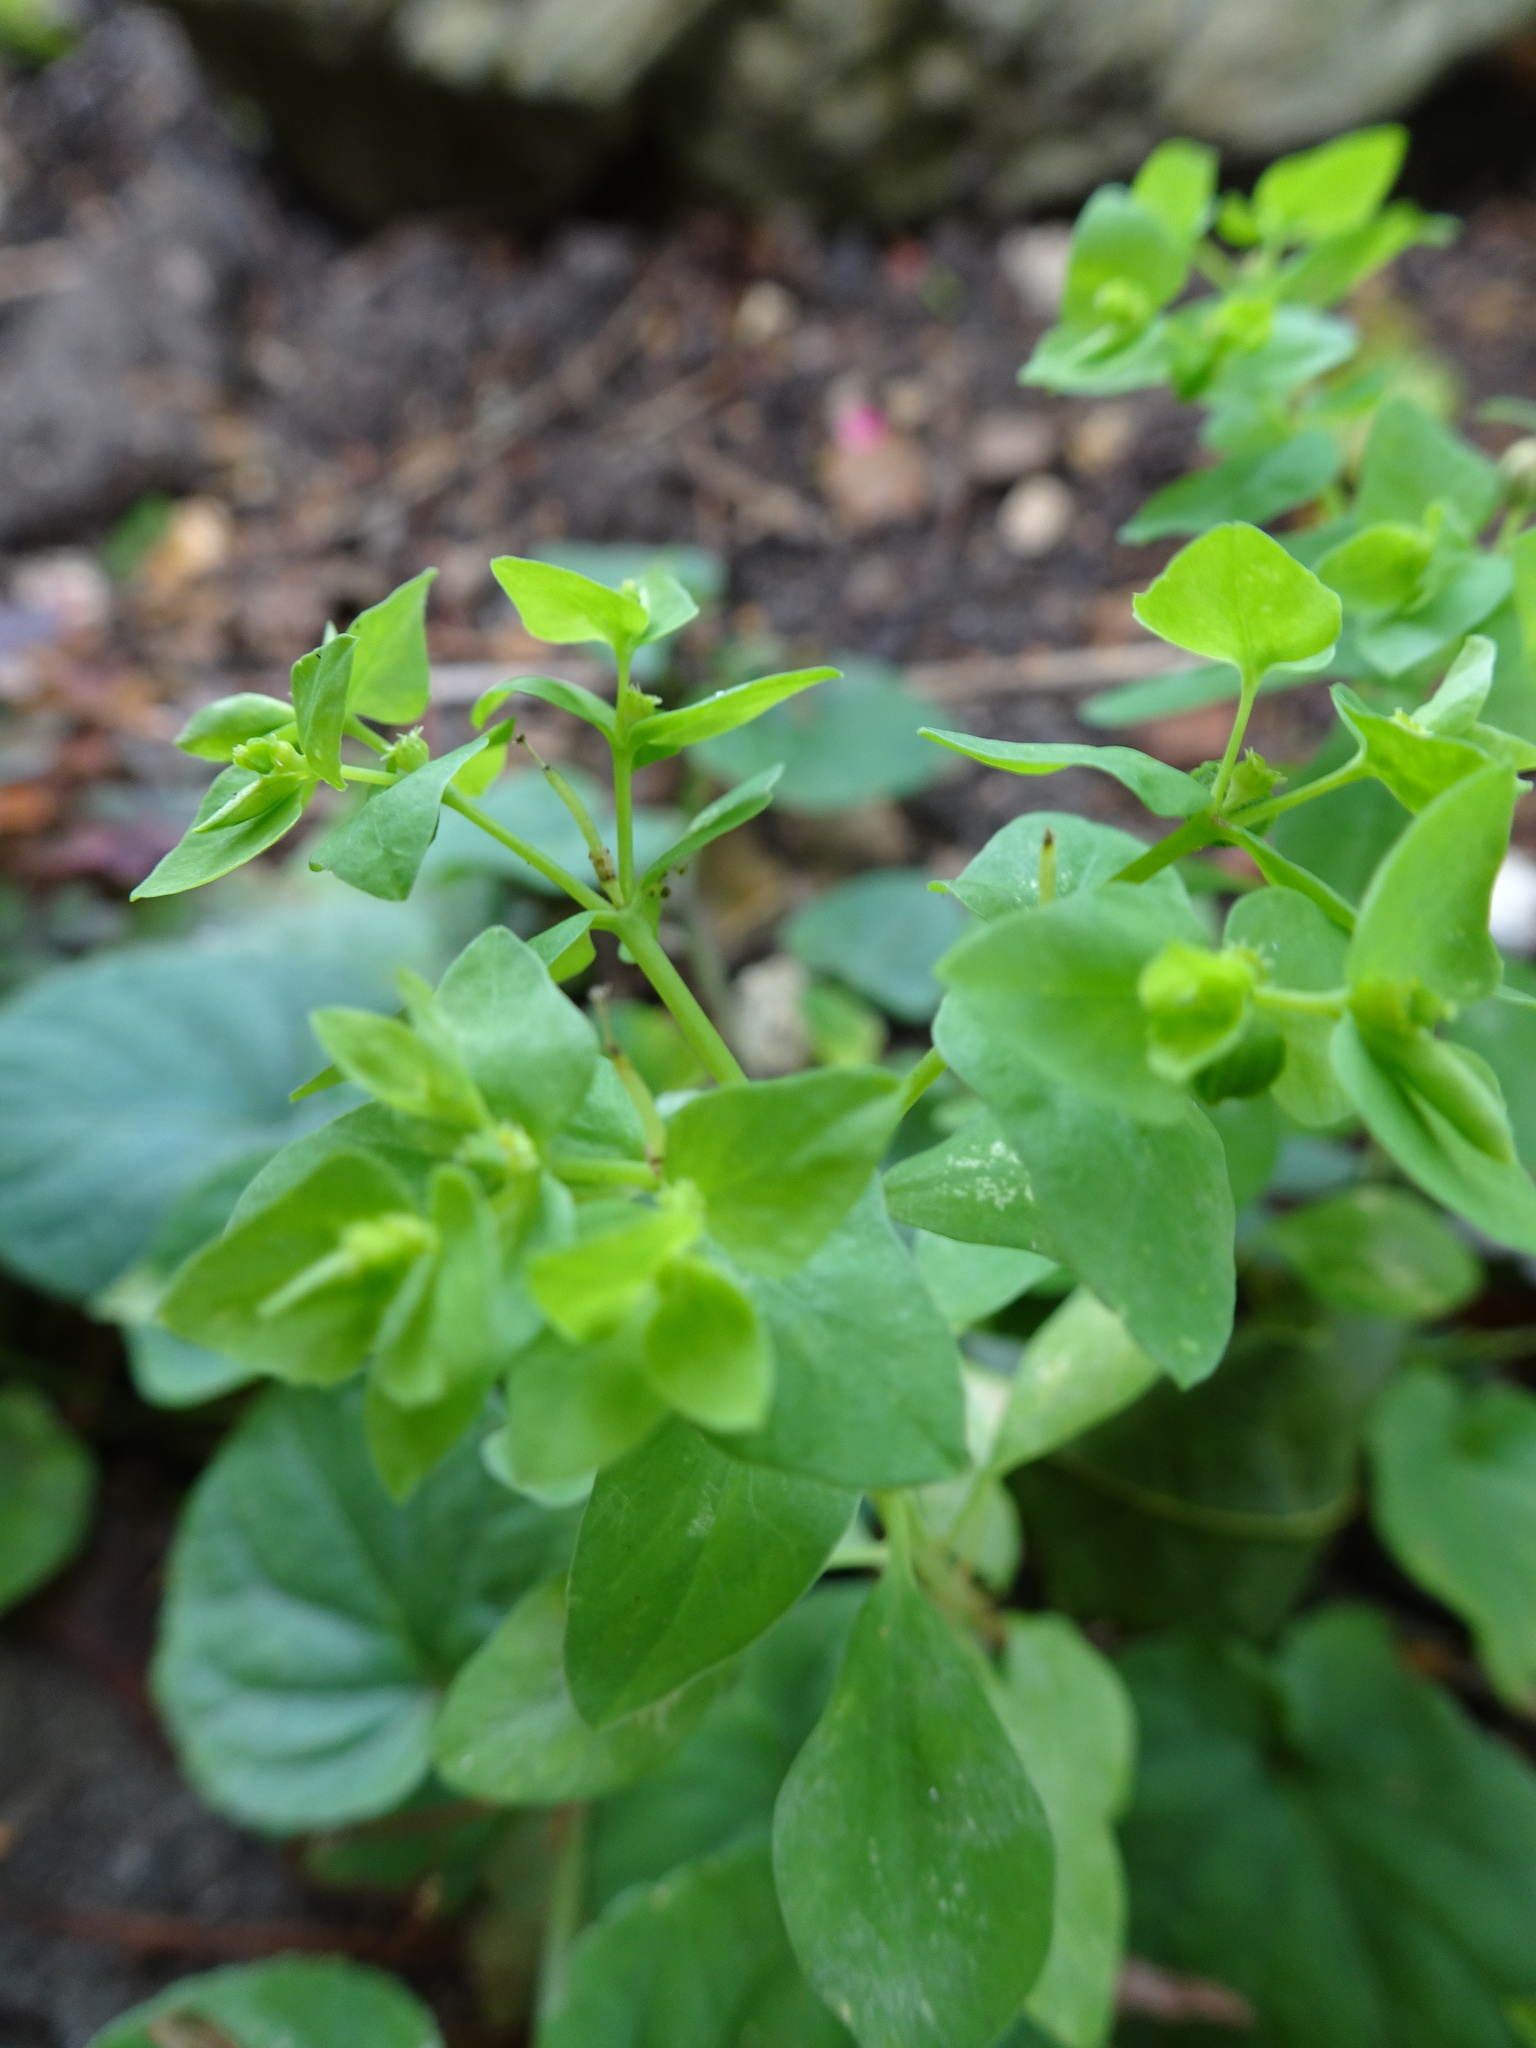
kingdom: Plantae
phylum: Tracheophyta
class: Magnoliopsida
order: Malpighiales
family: Euphorbiaceae
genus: Euphorbia
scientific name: Euphorbia peplus
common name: Petty spurge
